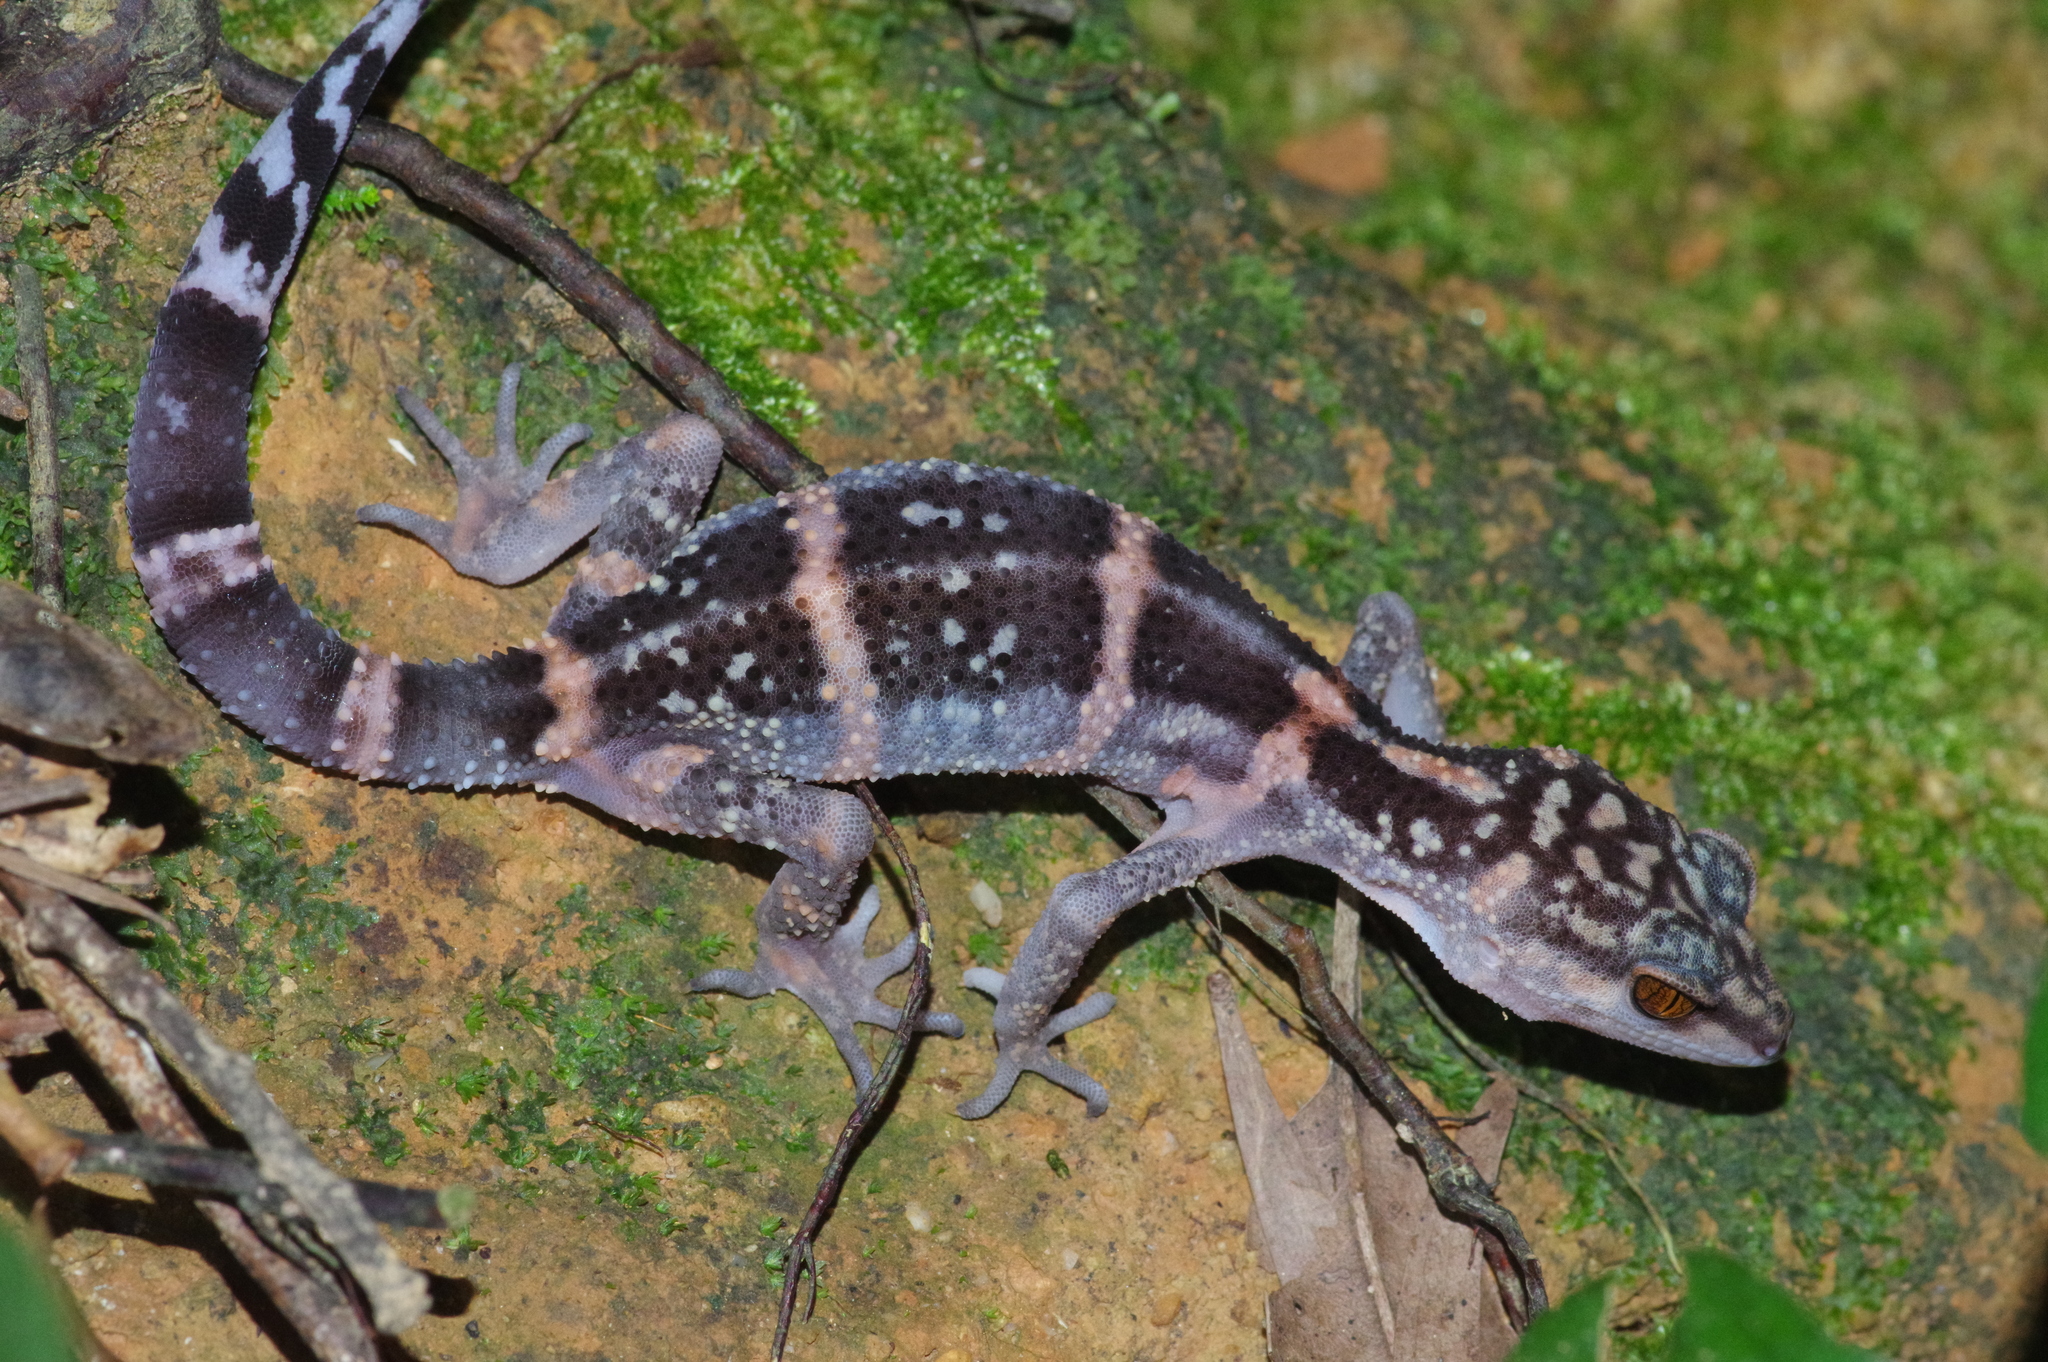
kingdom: Animalia
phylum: Chordata
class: Squamata
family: Eublepharidae
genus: Goniurosaurus
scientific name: Goniurosaurus kuroiwae
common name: Tokashiki gecko
